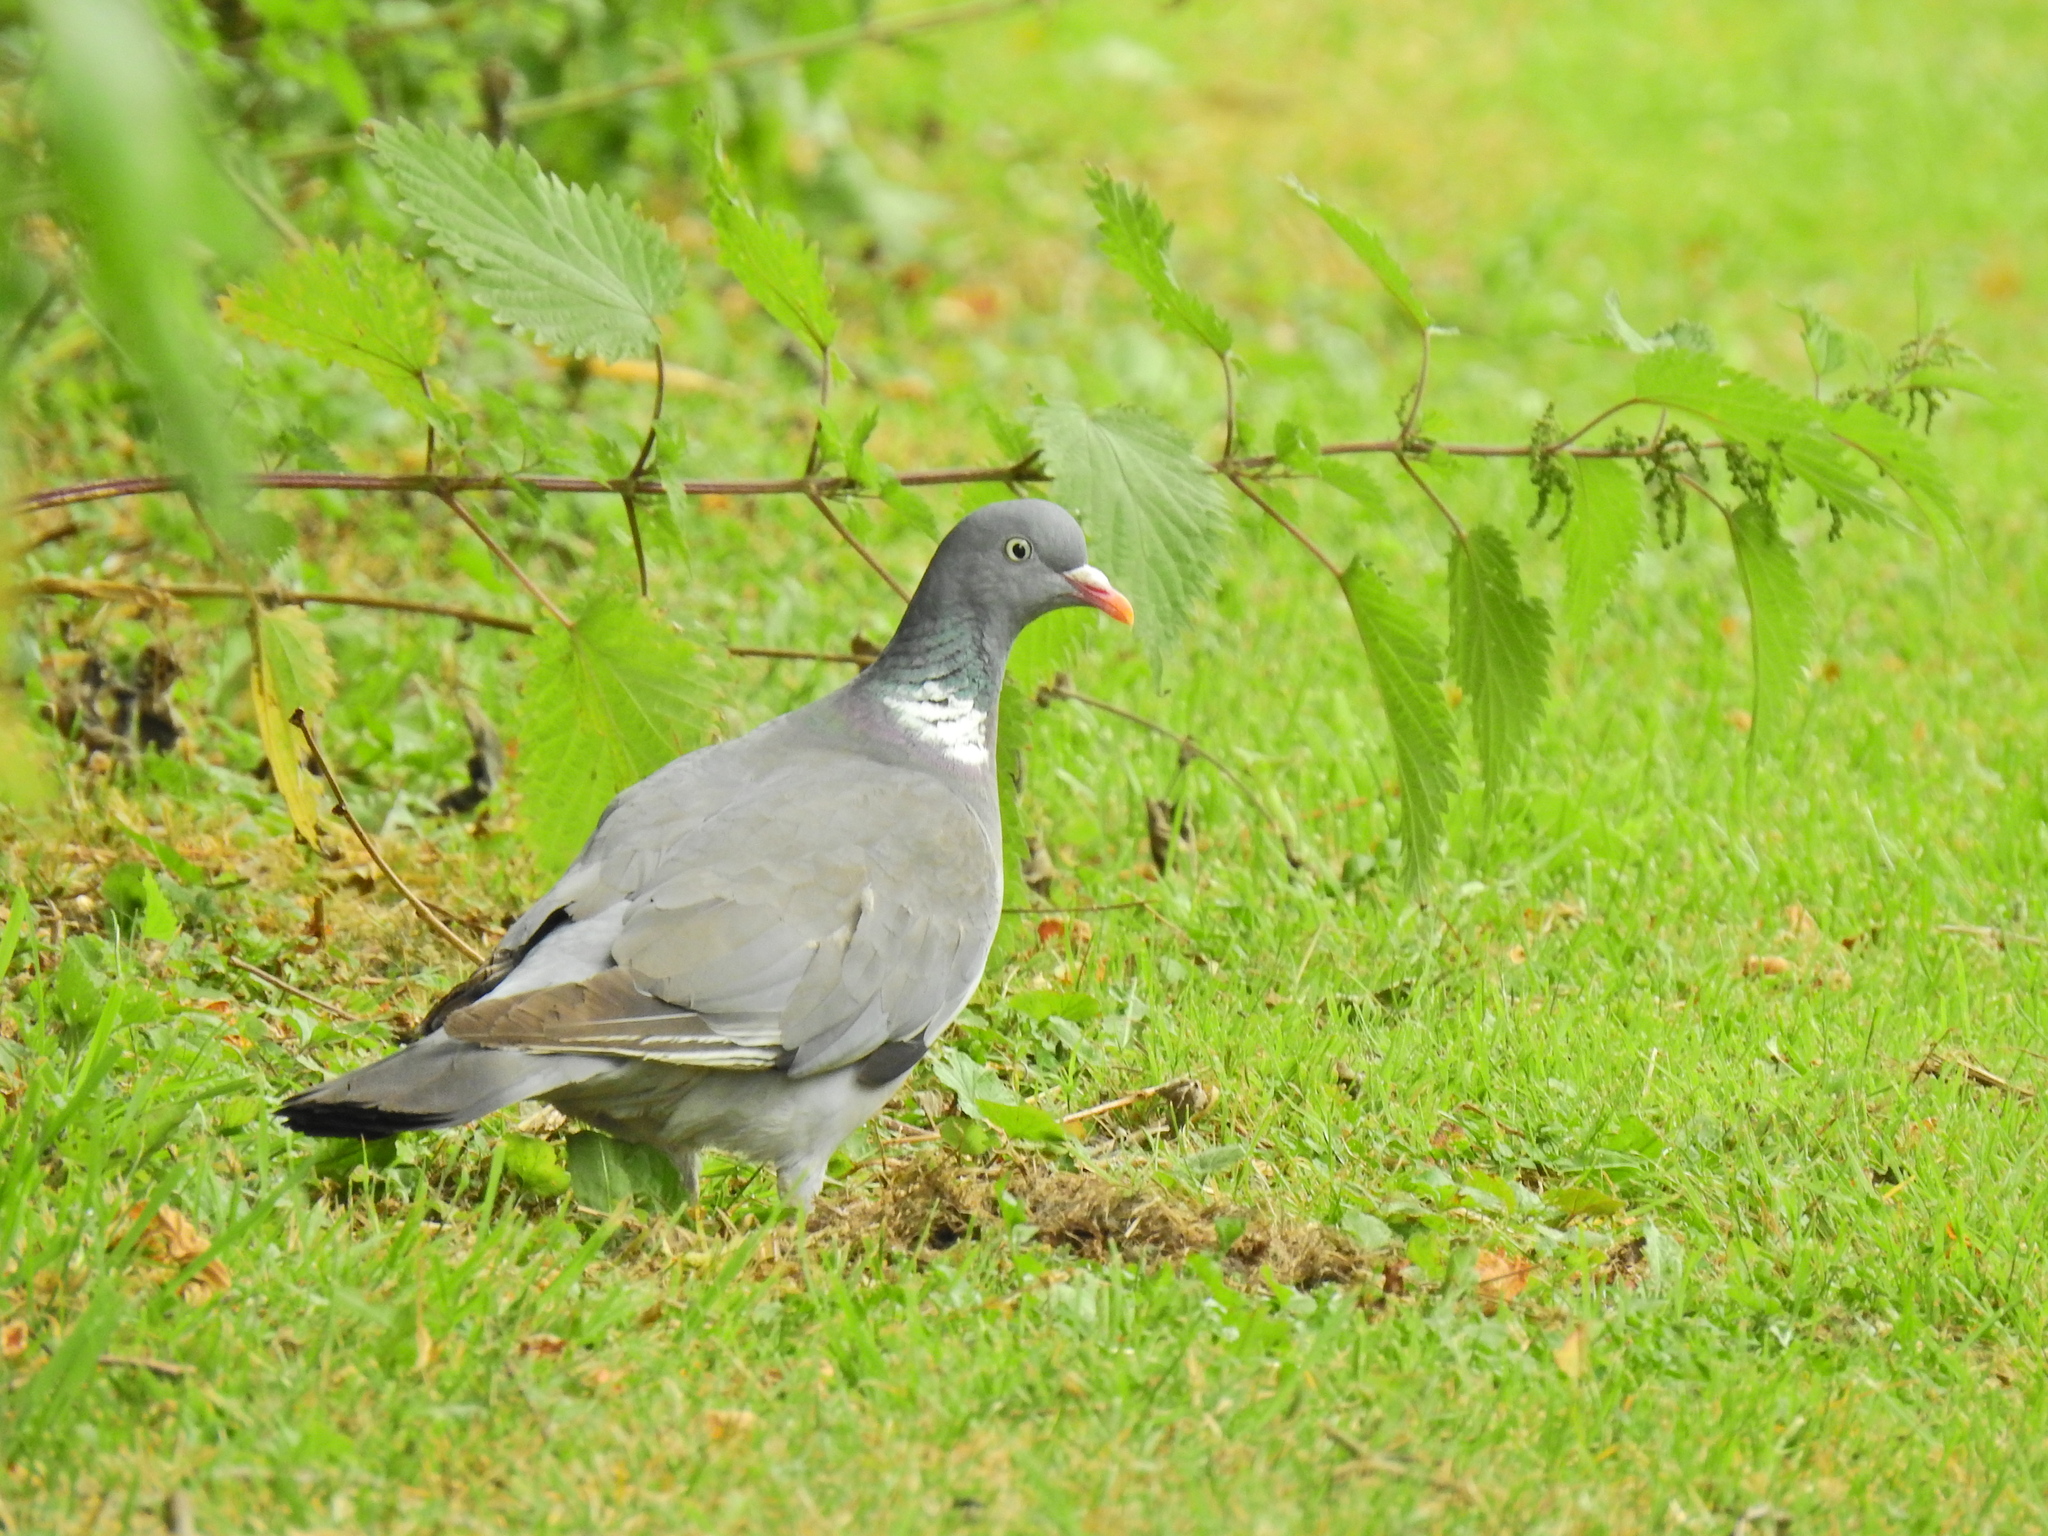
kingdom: Animalia
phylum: Chordata
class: Aves
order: Columbiformes
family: Columbidae
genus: Columba
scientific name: Columba palumbus
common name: Common wood pigeon
